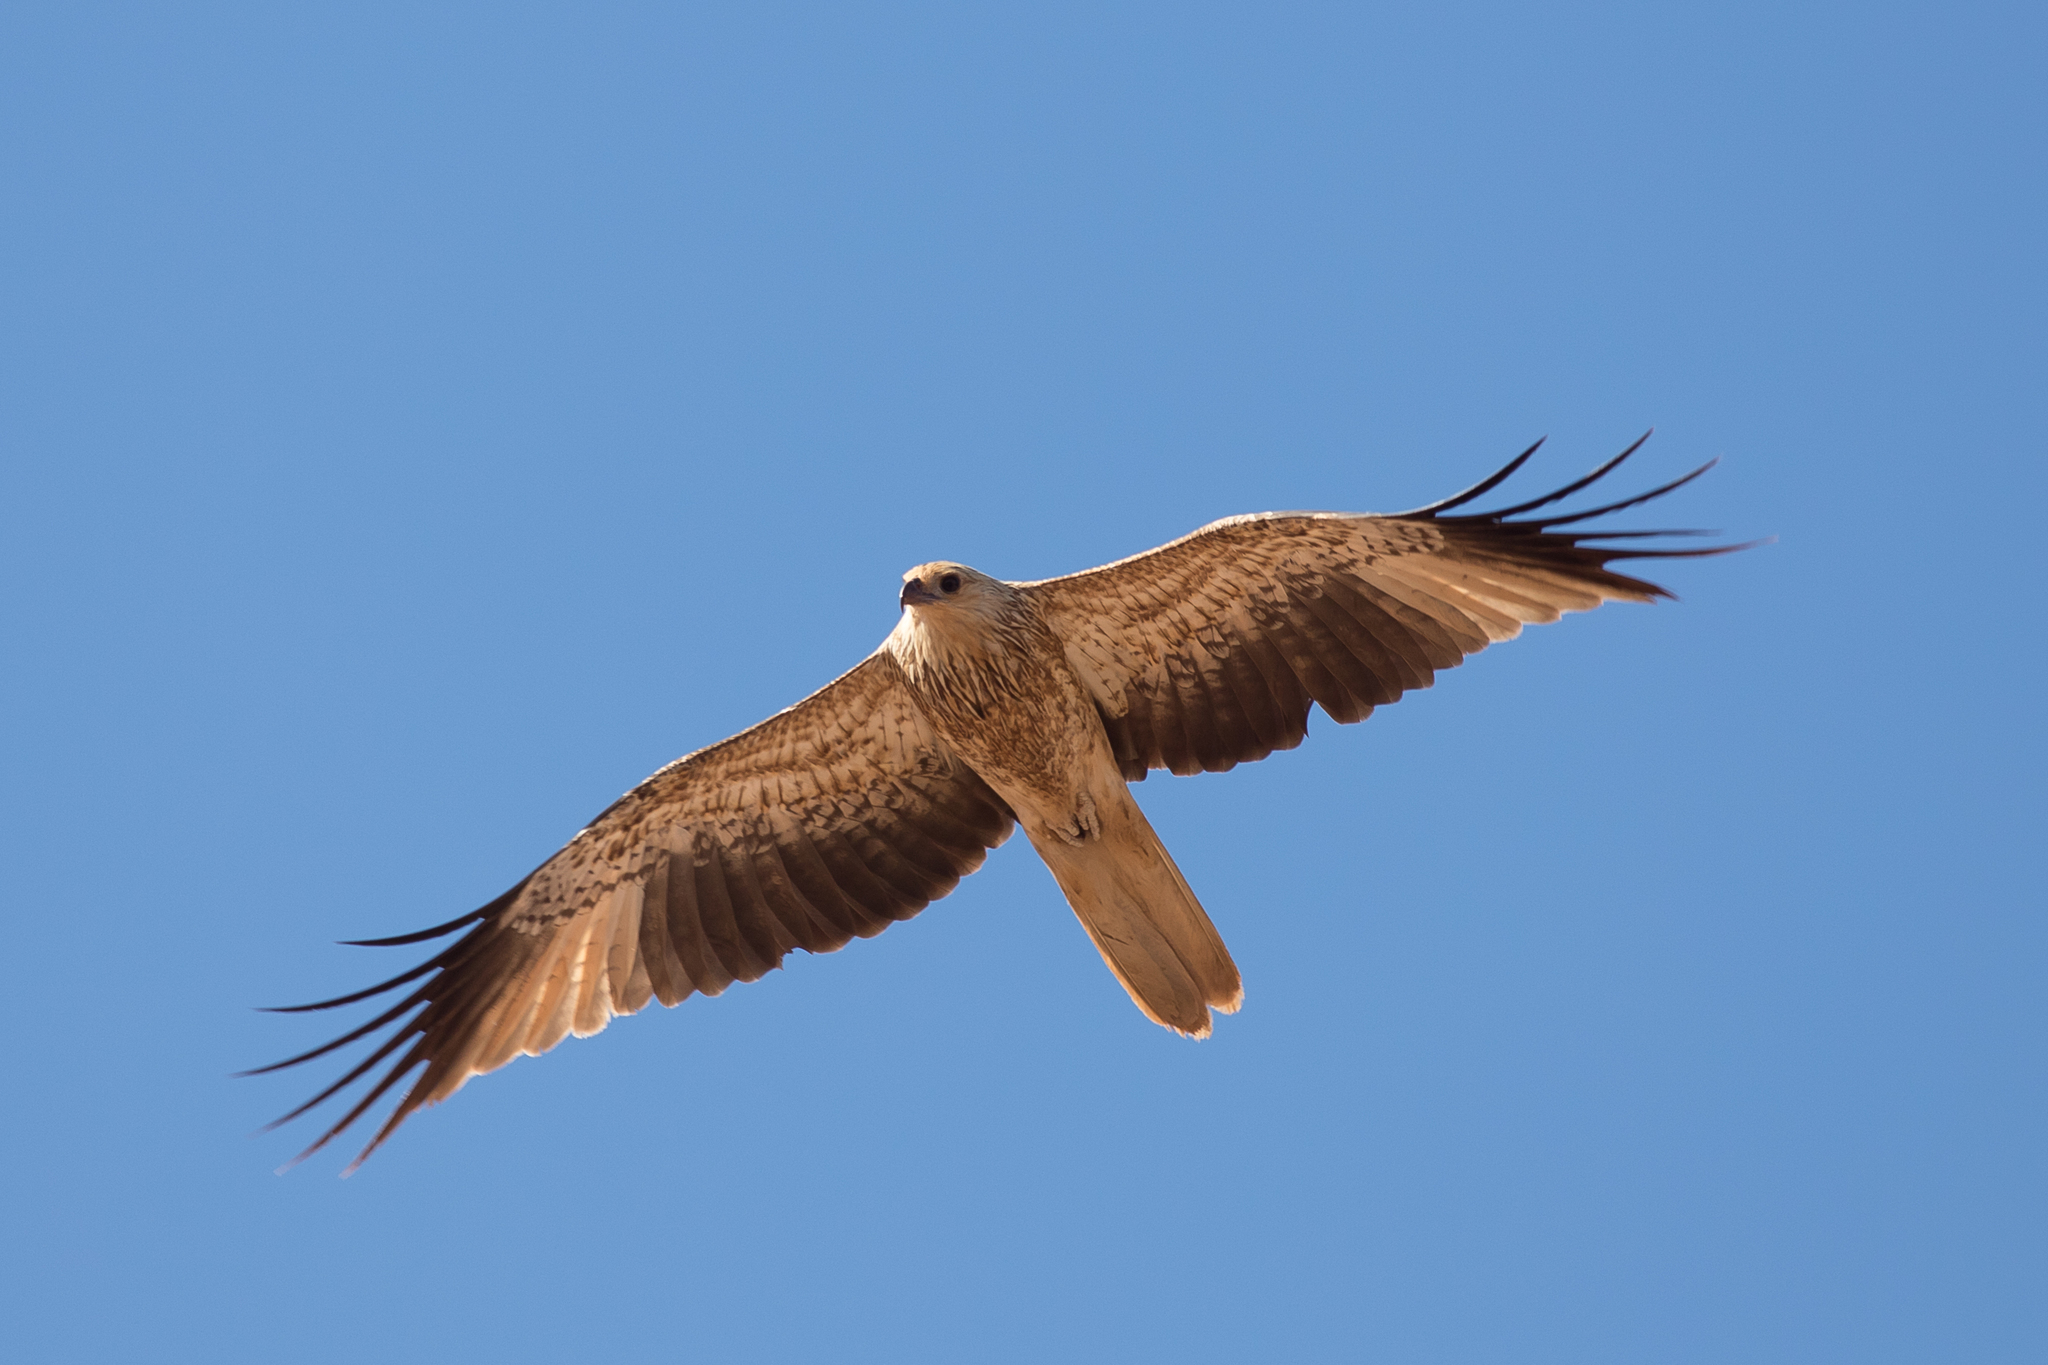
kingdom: Animalia
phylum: Chordata
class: Aves
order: Accipitriformes
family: Accipitridae
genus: Haliastur
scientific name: Haliastur sphenurus
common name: Whistling kite
